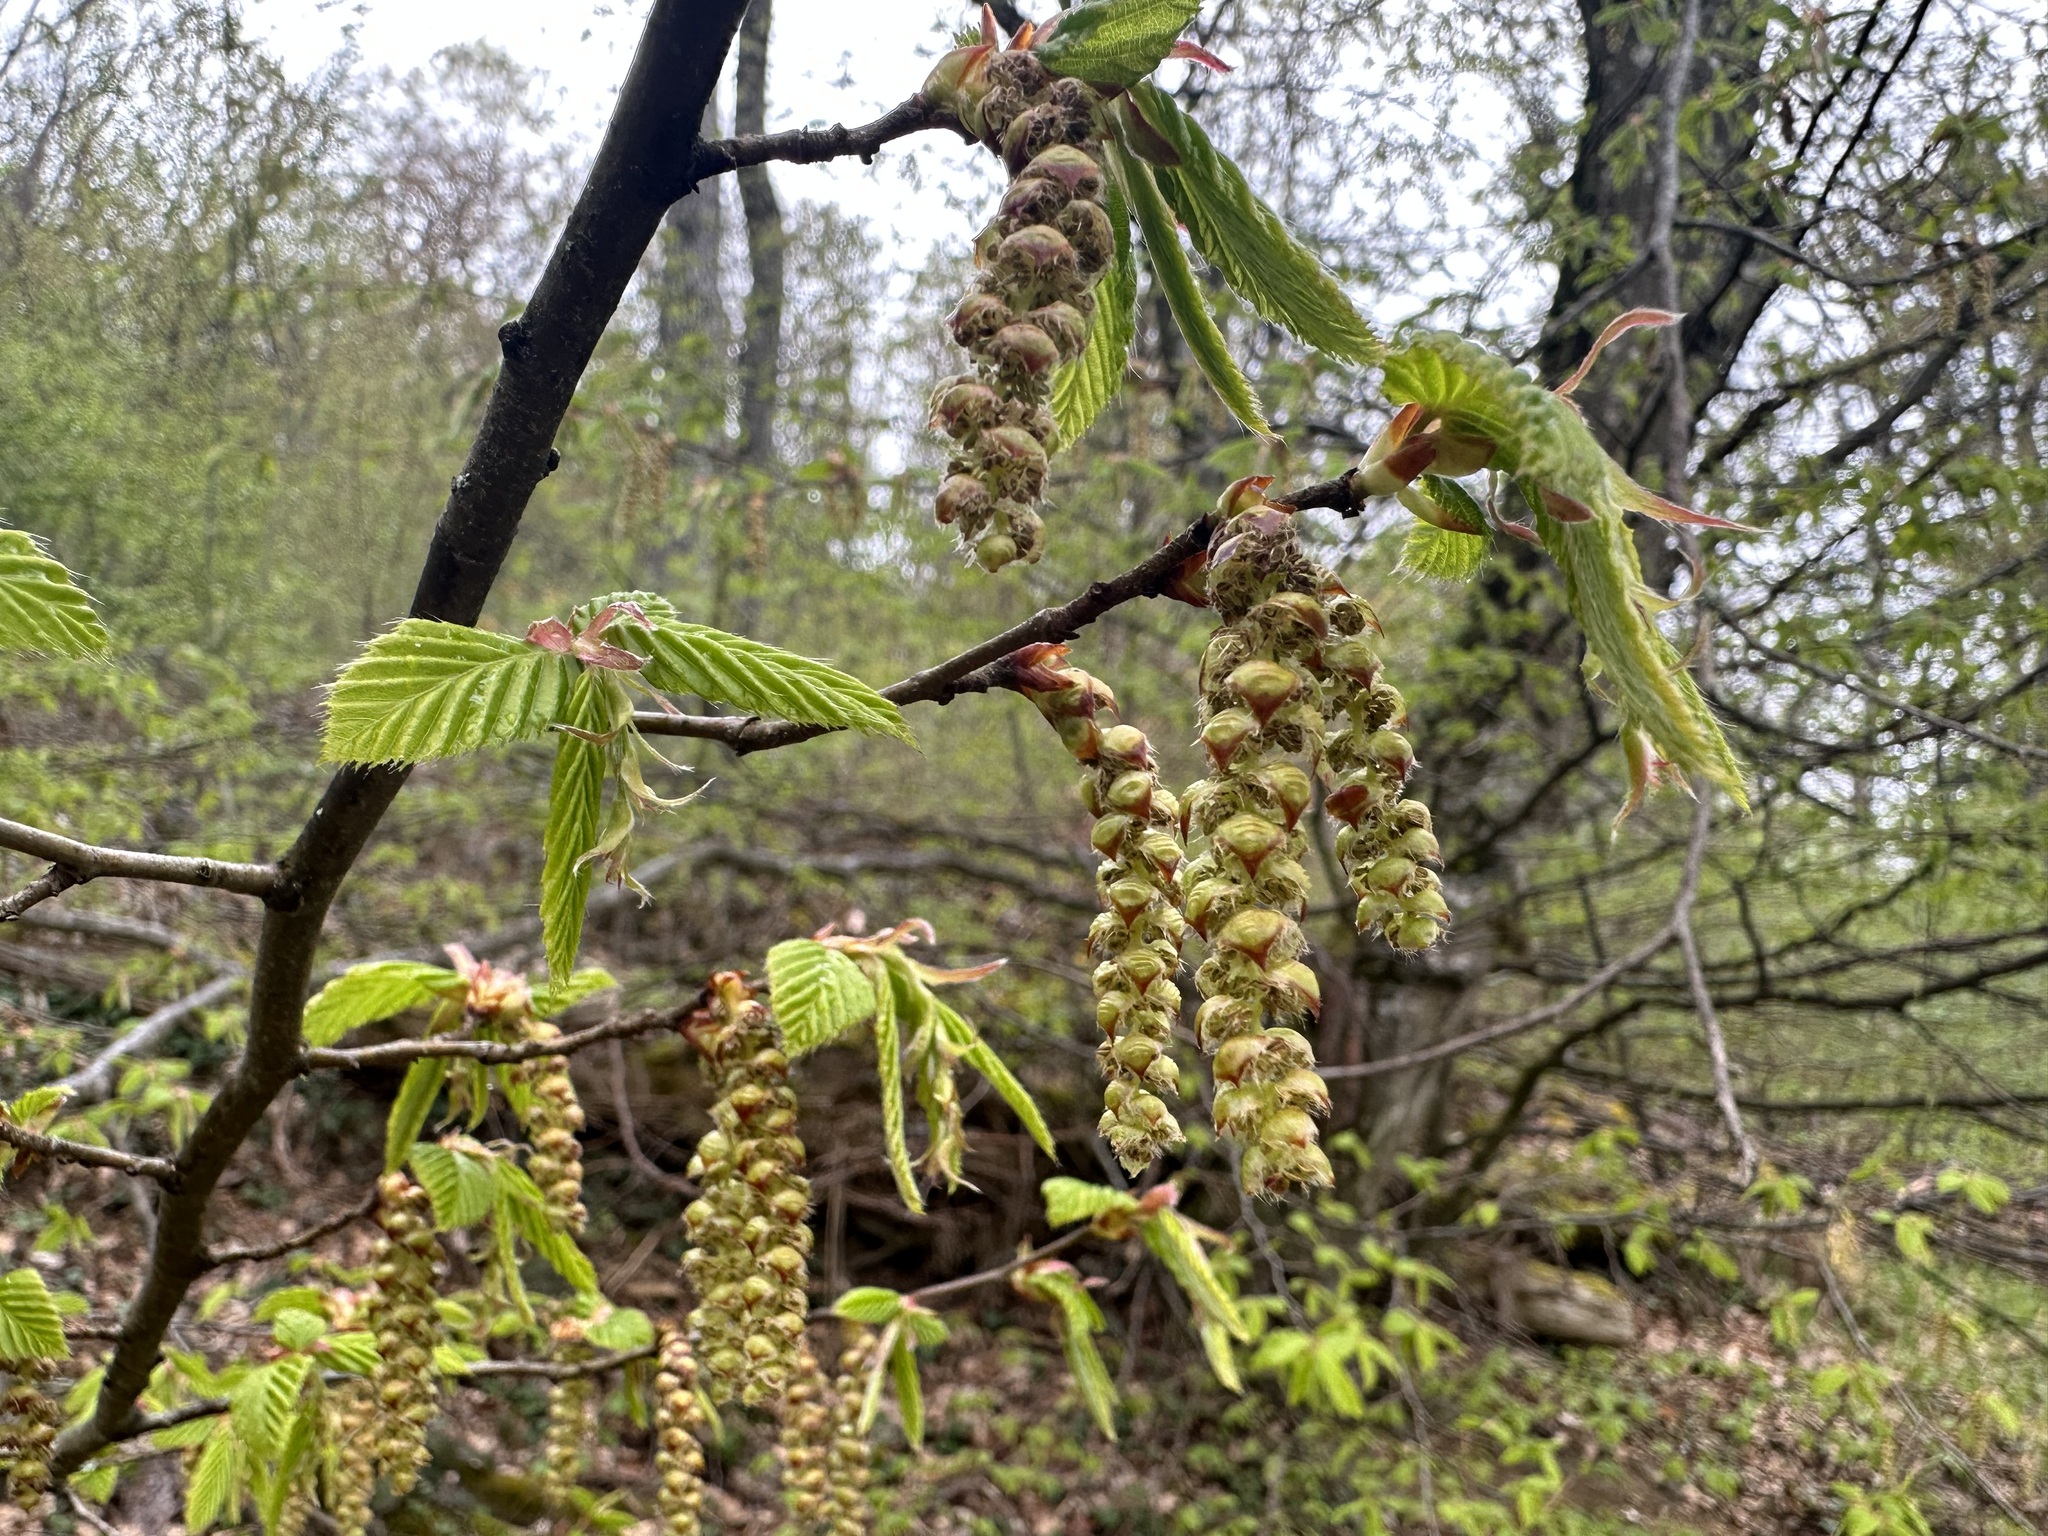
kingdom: Plantae
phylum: Tracheophyta
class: Magnoliopsida
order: Fagales
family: Betulaceae
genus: Carpinus
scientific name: Carpinus betulus
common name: Hornbeam
